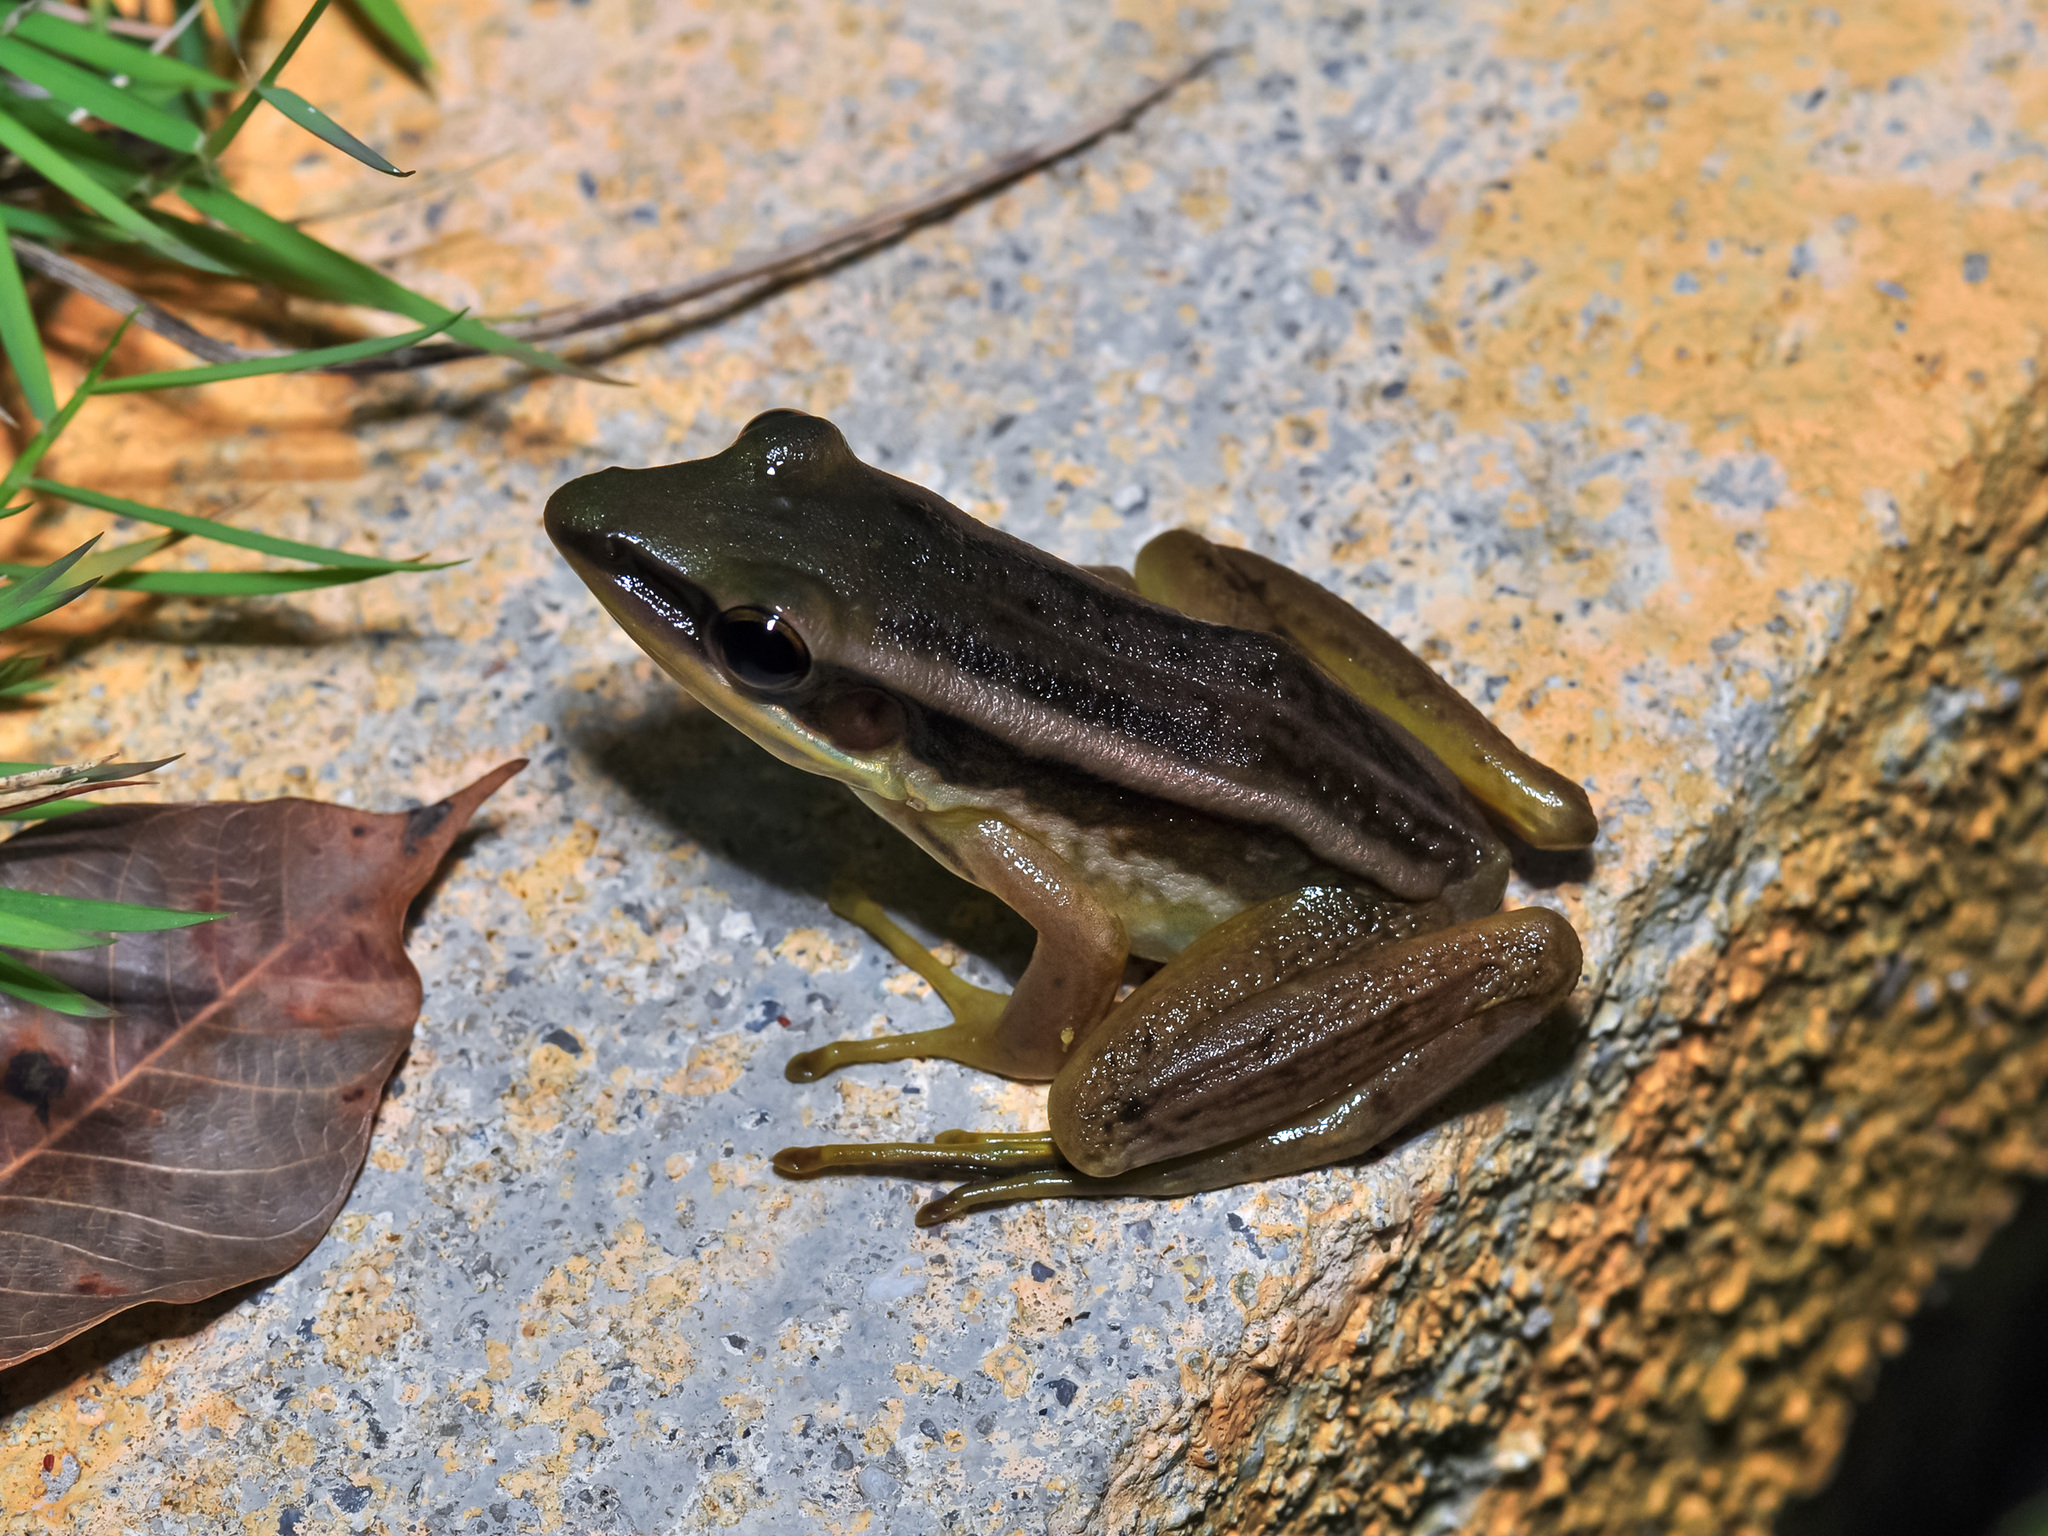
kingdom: Animalia
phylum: Chordata
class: Amphibia
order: Anura
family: Ranidae
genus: Hylarana
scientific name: Hylarana erythraea
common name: Common green frog/green paddy frog/leaf frog
